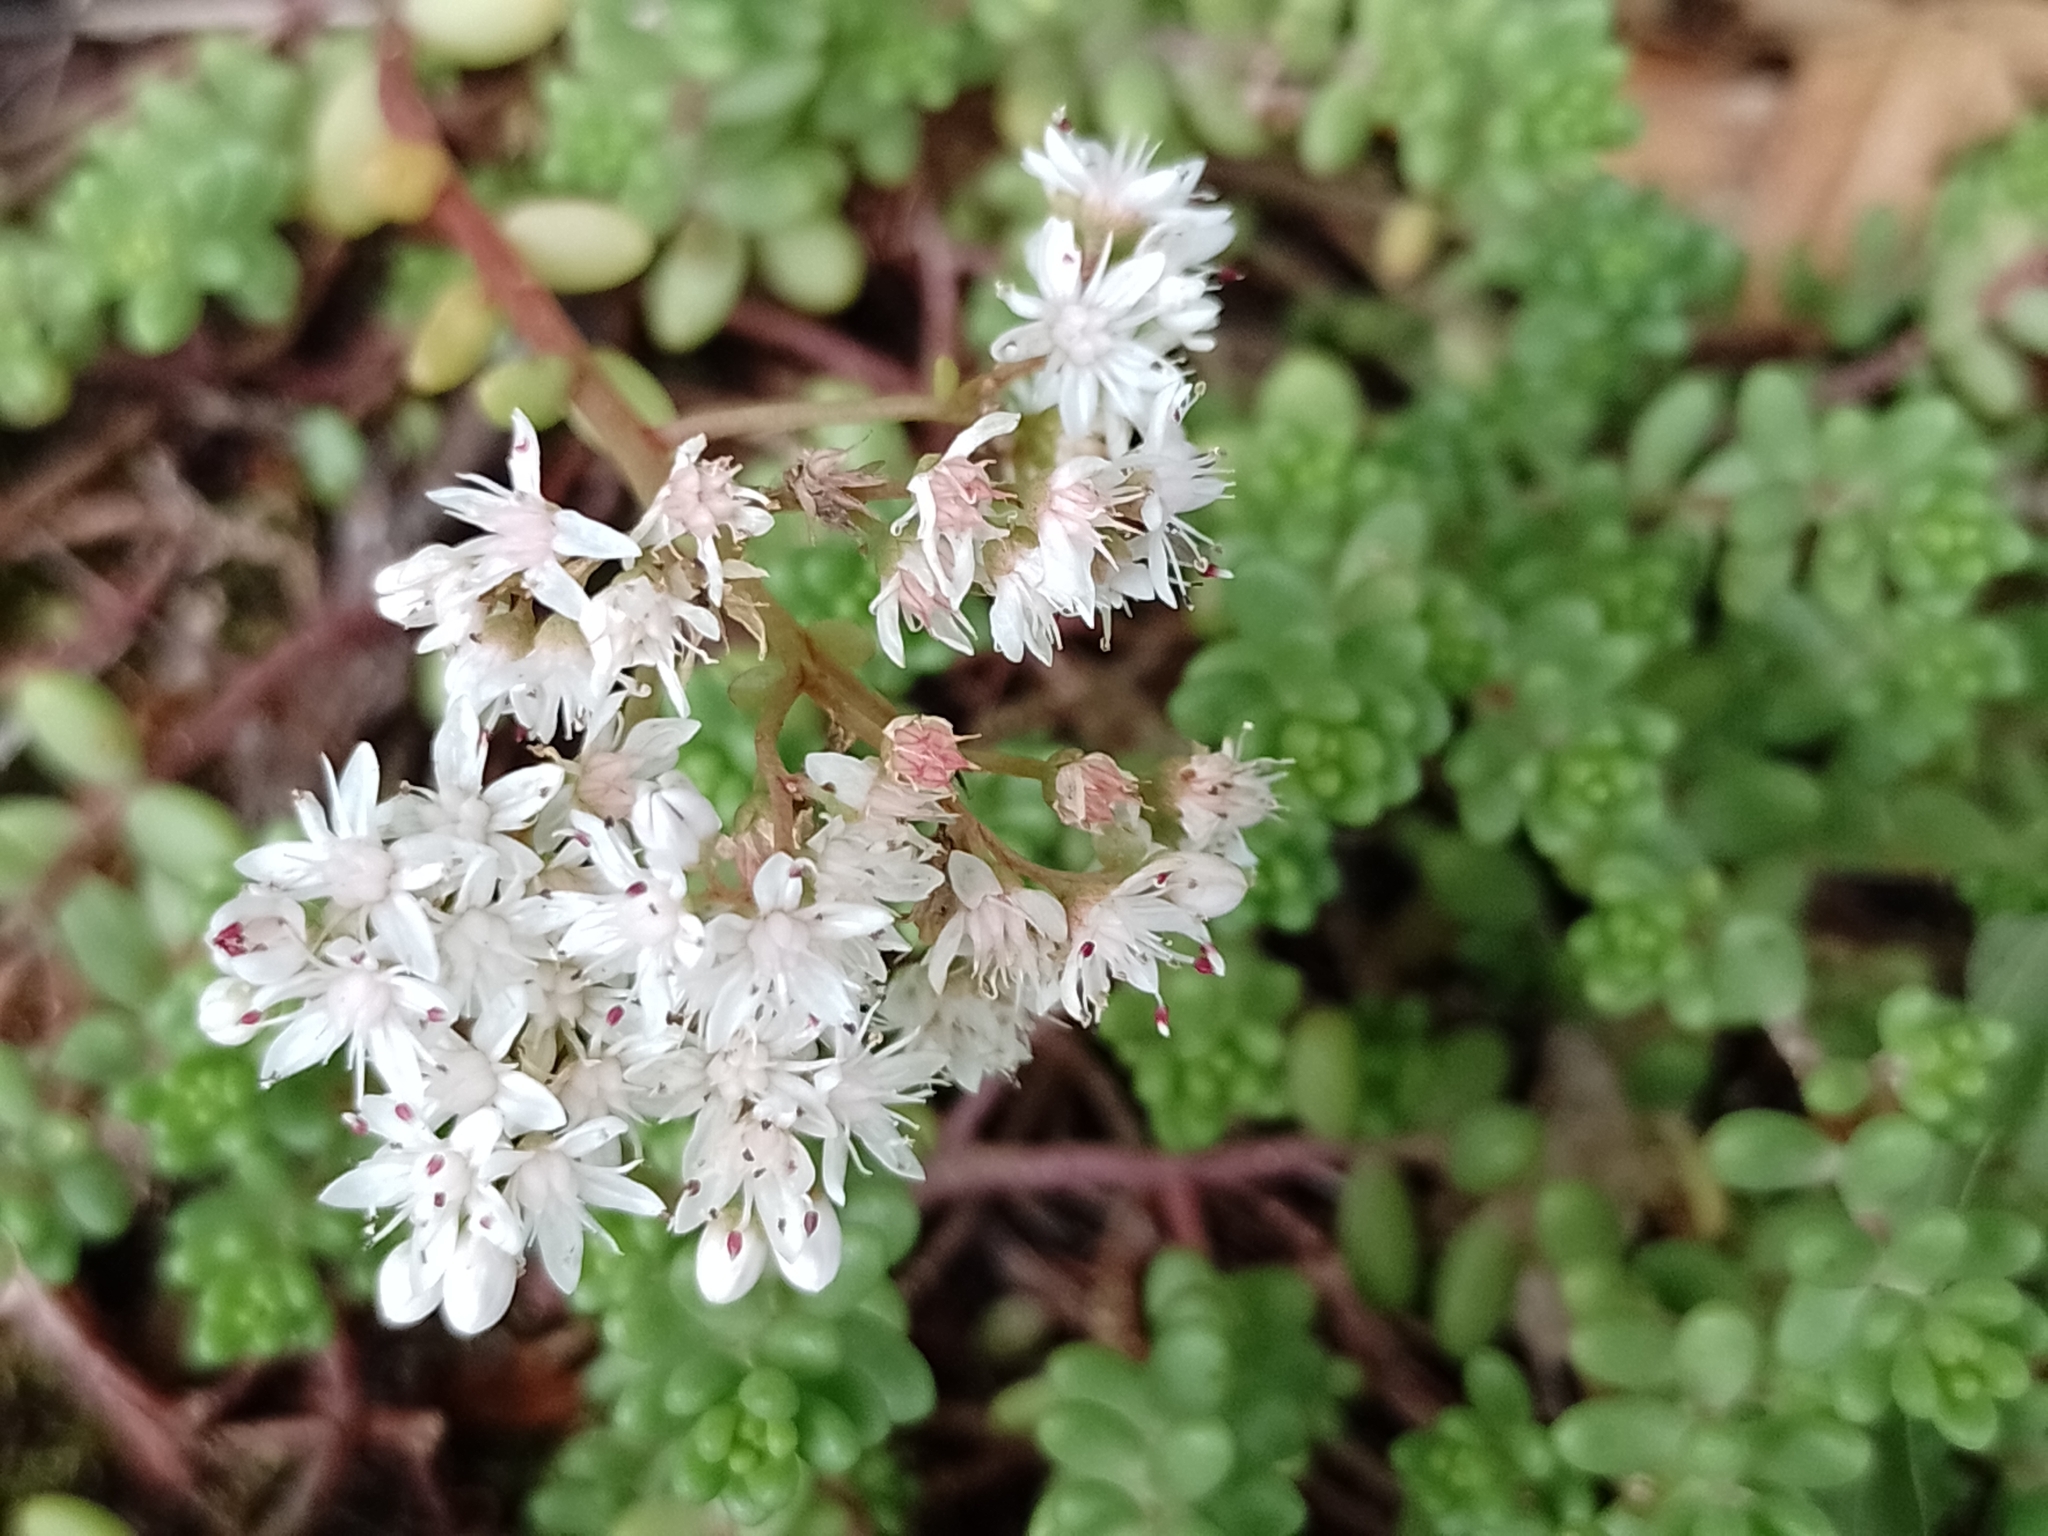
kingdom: Plantae
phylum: Tracheophyta
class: Magnoliopsida
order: Saxifragales
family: Crassulaceae
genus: Sedum
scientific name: Sedum album
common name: White stonecrop
